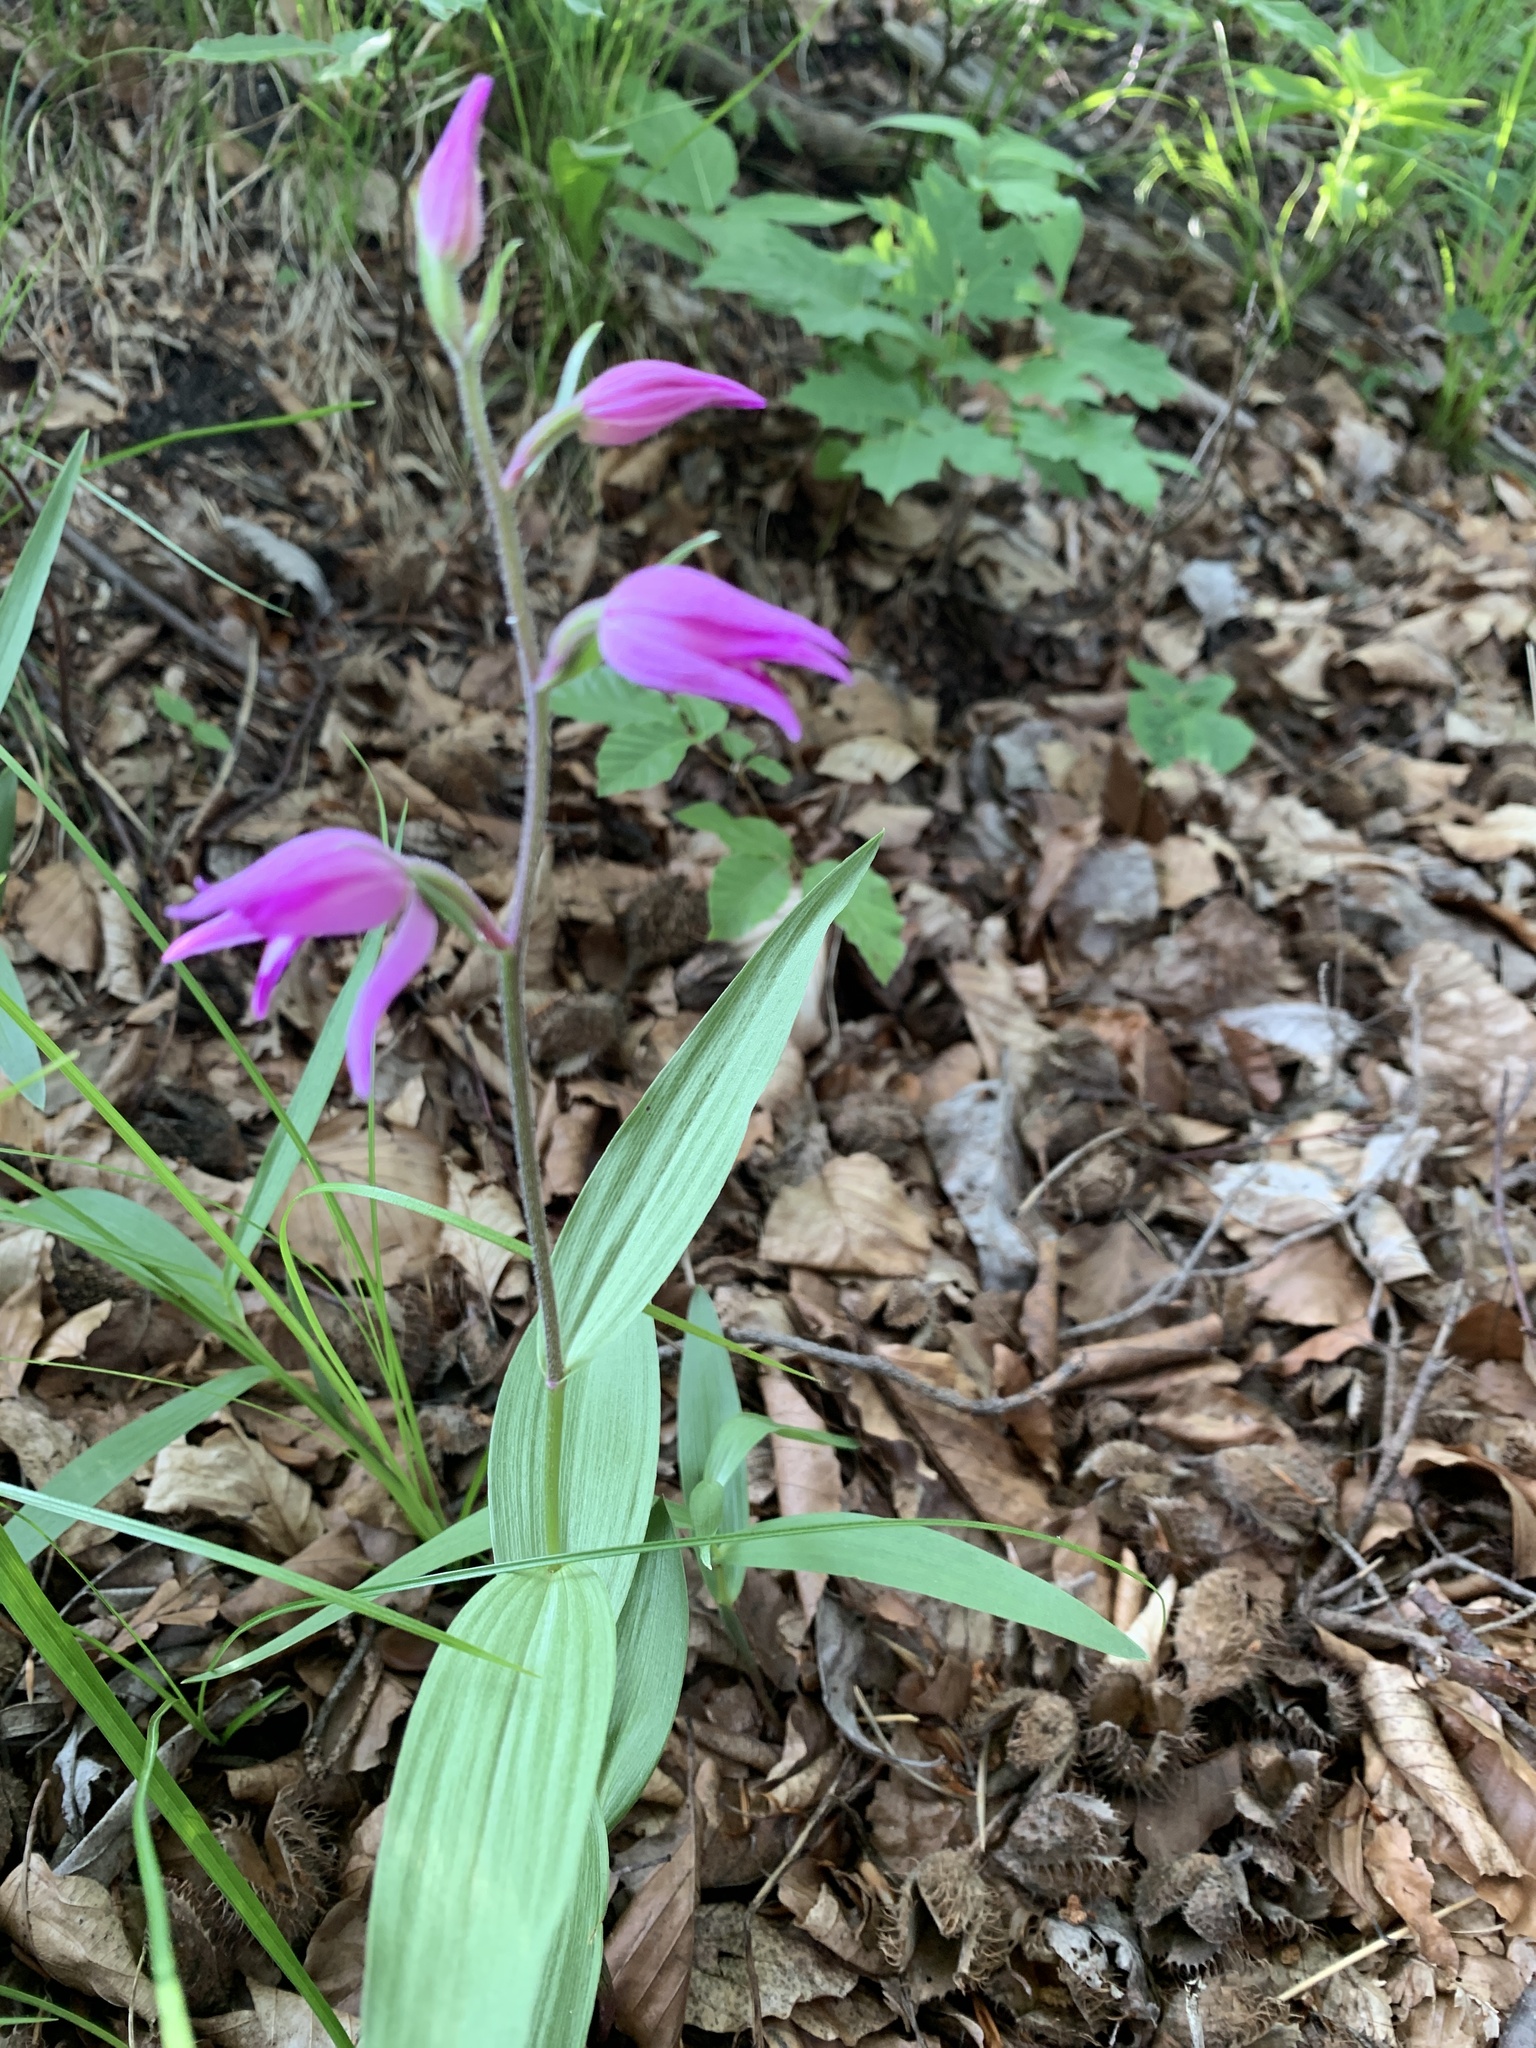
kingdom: Plantae
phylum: Tracheophyta
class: Liliopsida
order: Asparagales
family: Orchidaceae
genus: Cephalanthera
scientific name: Cephalanthera rubra
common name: Red helleborine
